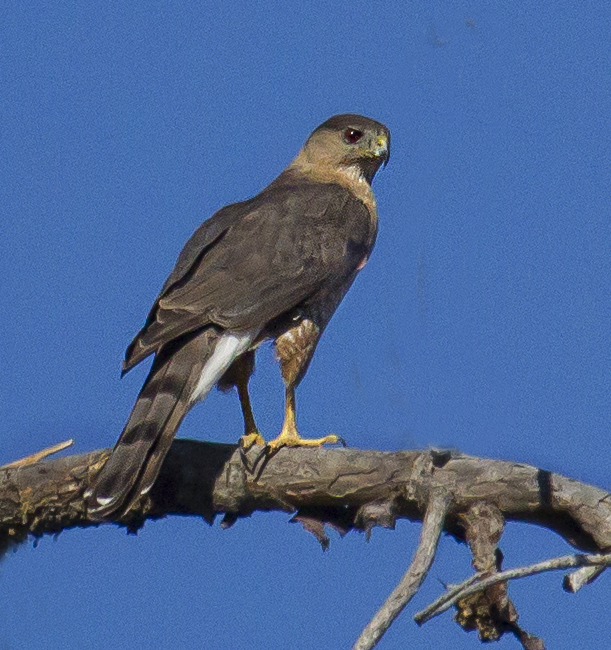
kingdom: Animalia
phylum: Chordata
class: Aves
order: Accipitriformes
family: Accipitridae
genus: Accipiter
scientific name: Accipiter cooperii
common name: Cooper's hawk
